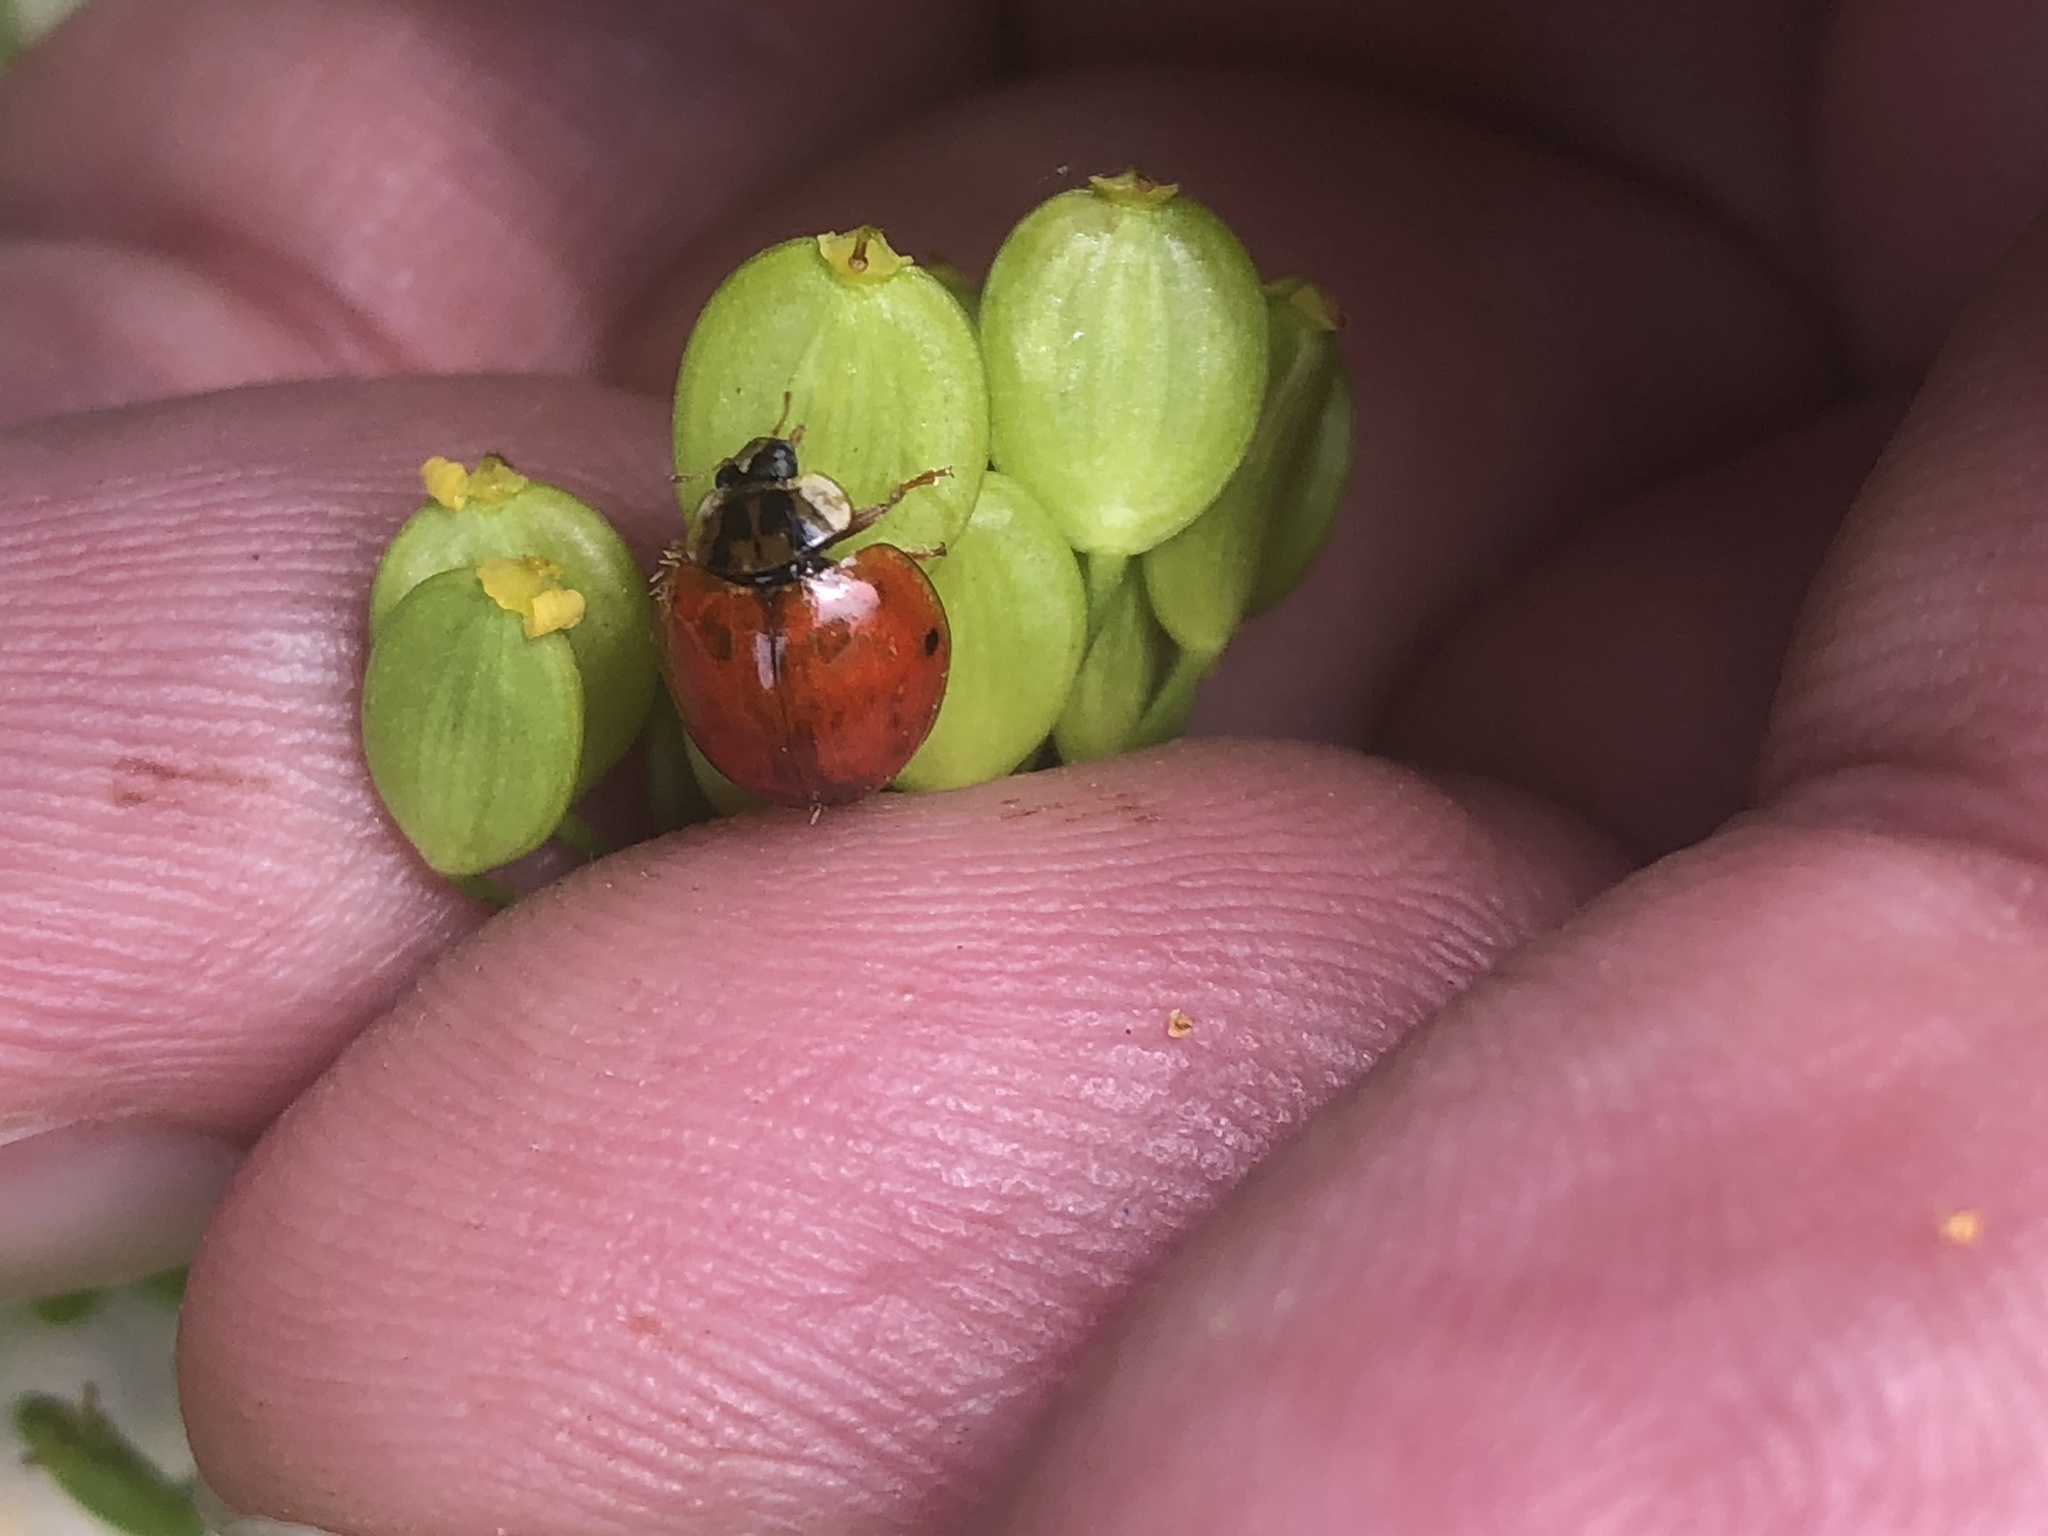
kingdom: Animalia
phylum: Arthropoda
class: Insecta
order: Coleoptera
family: Coccinellidae
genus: Harmonia
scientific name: Harmonia axyridis
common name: Harlequin ladybird
